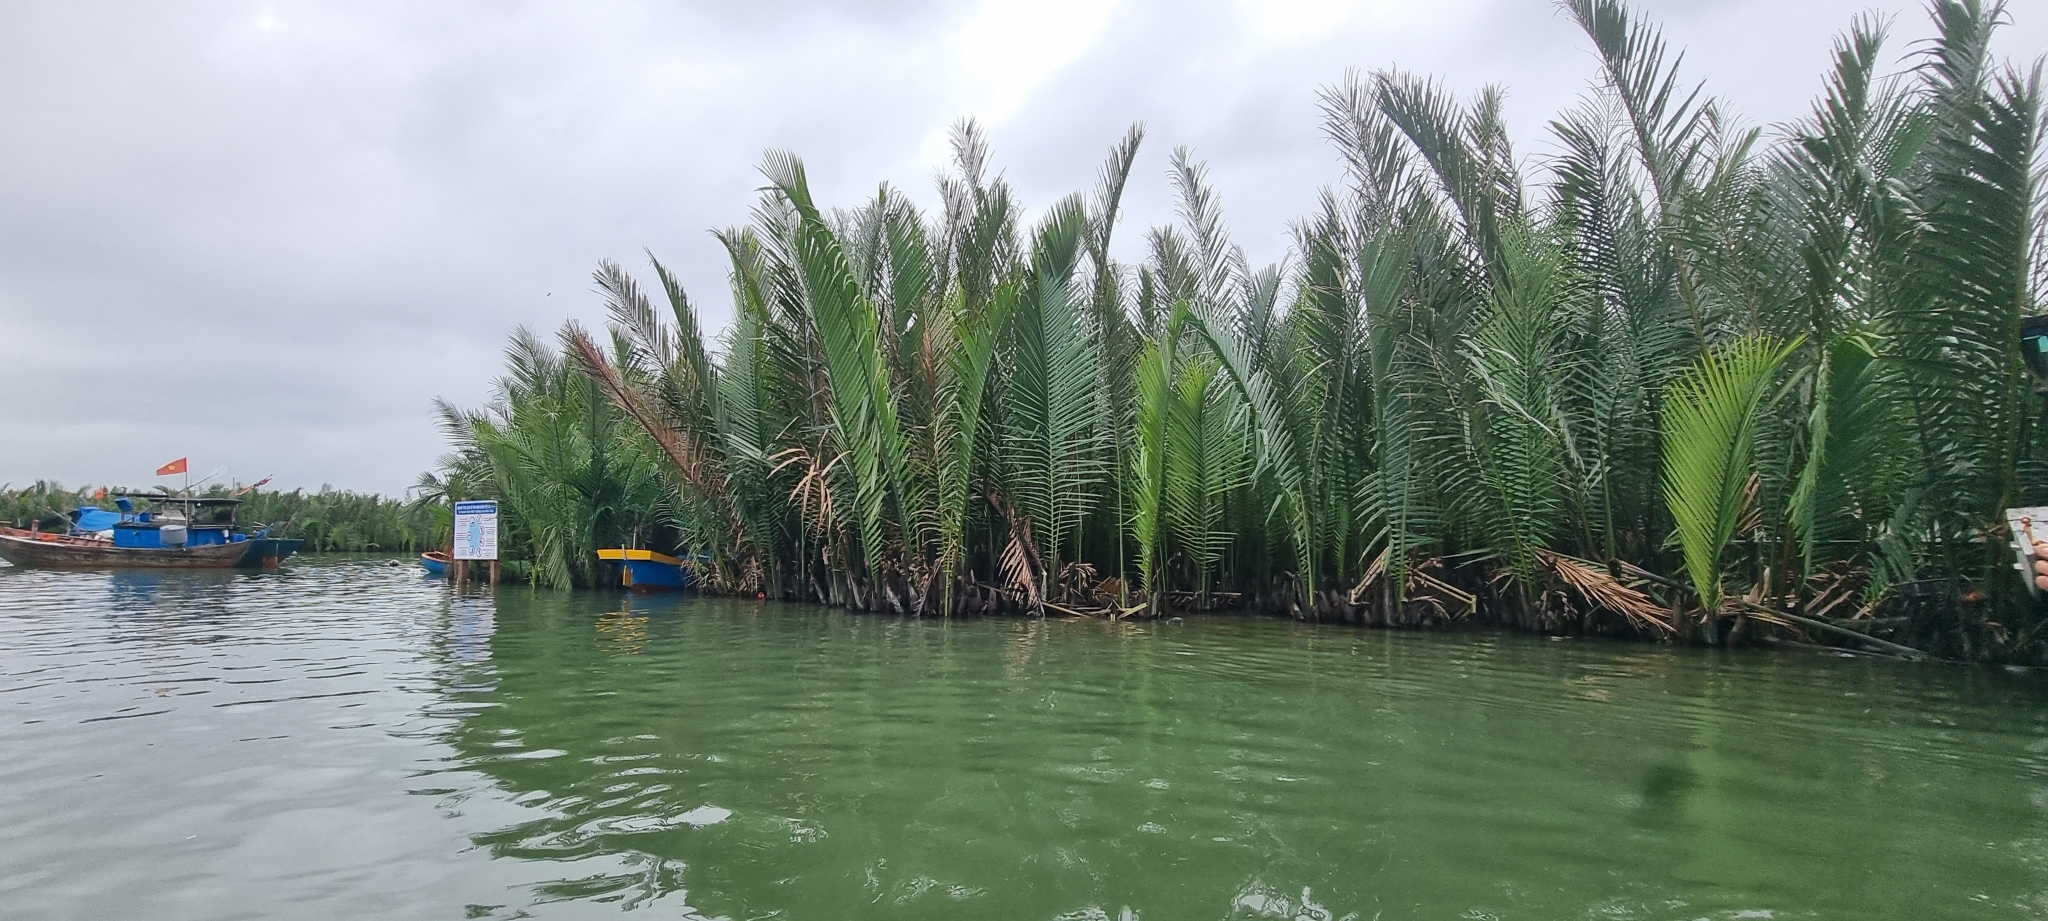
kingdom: Plantae
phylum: Tracheophyta
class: Liliopsida
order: Arecales
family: Arecaceae
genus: Nypa
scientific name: Nypa fruticans
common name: Mangrove palm
